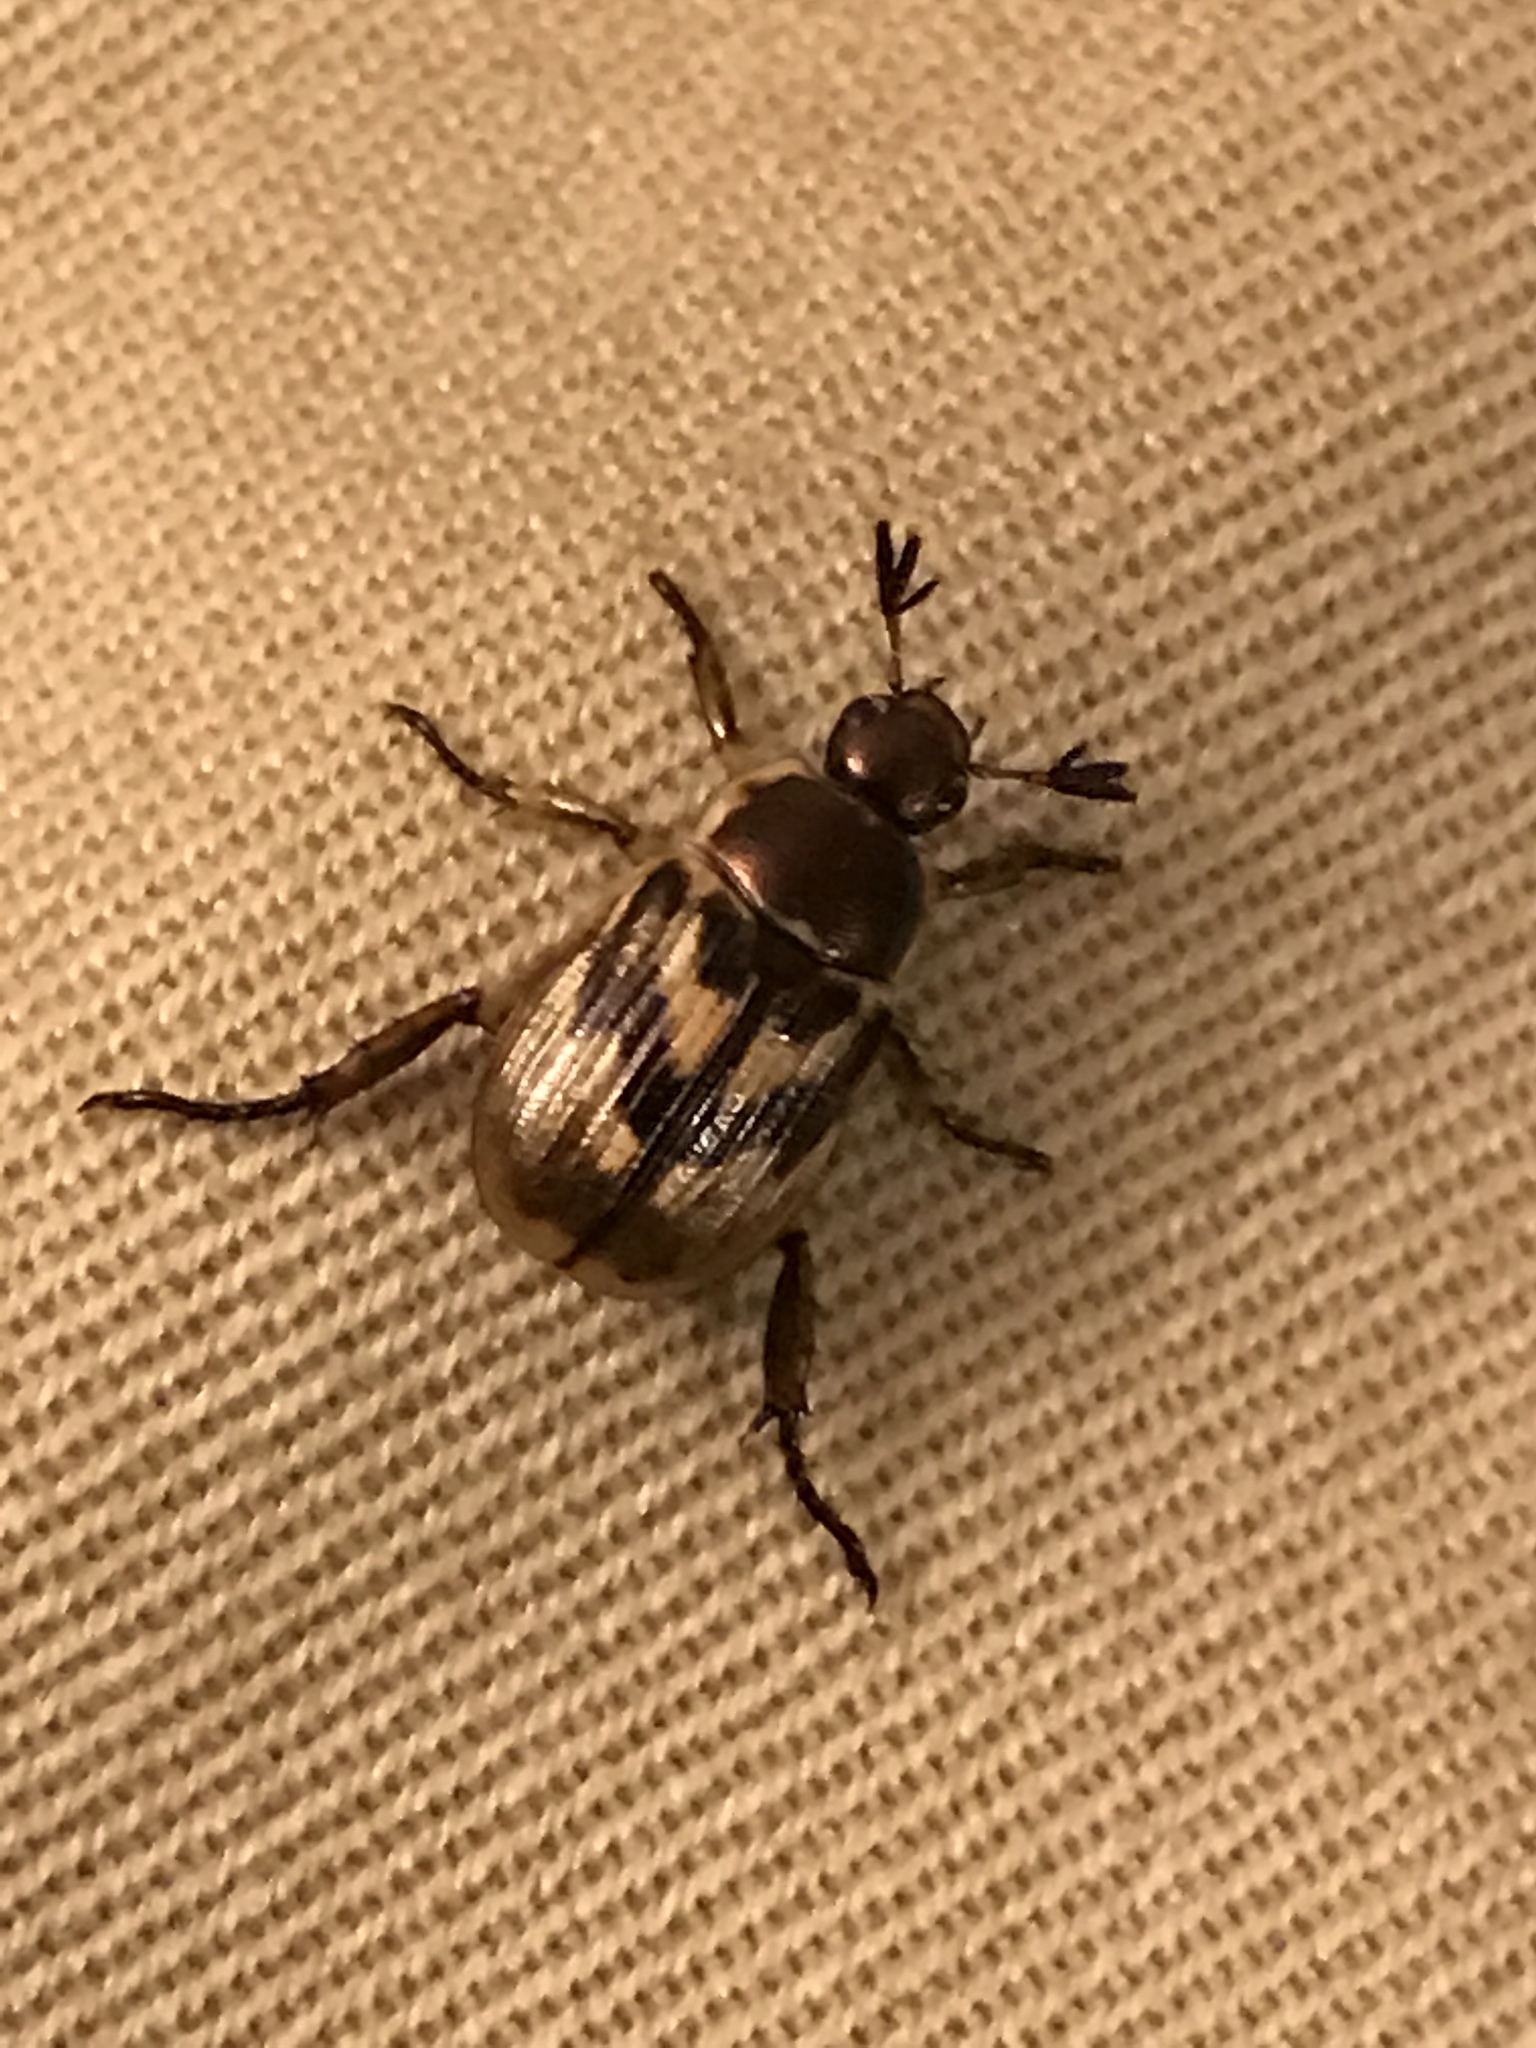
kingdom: Animalia
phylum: Arthropoda
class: Insecta
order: Coleoptera
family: Scarabaeidae
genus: Exomala
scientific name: Exomala orientalis
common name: Oriental beetle
